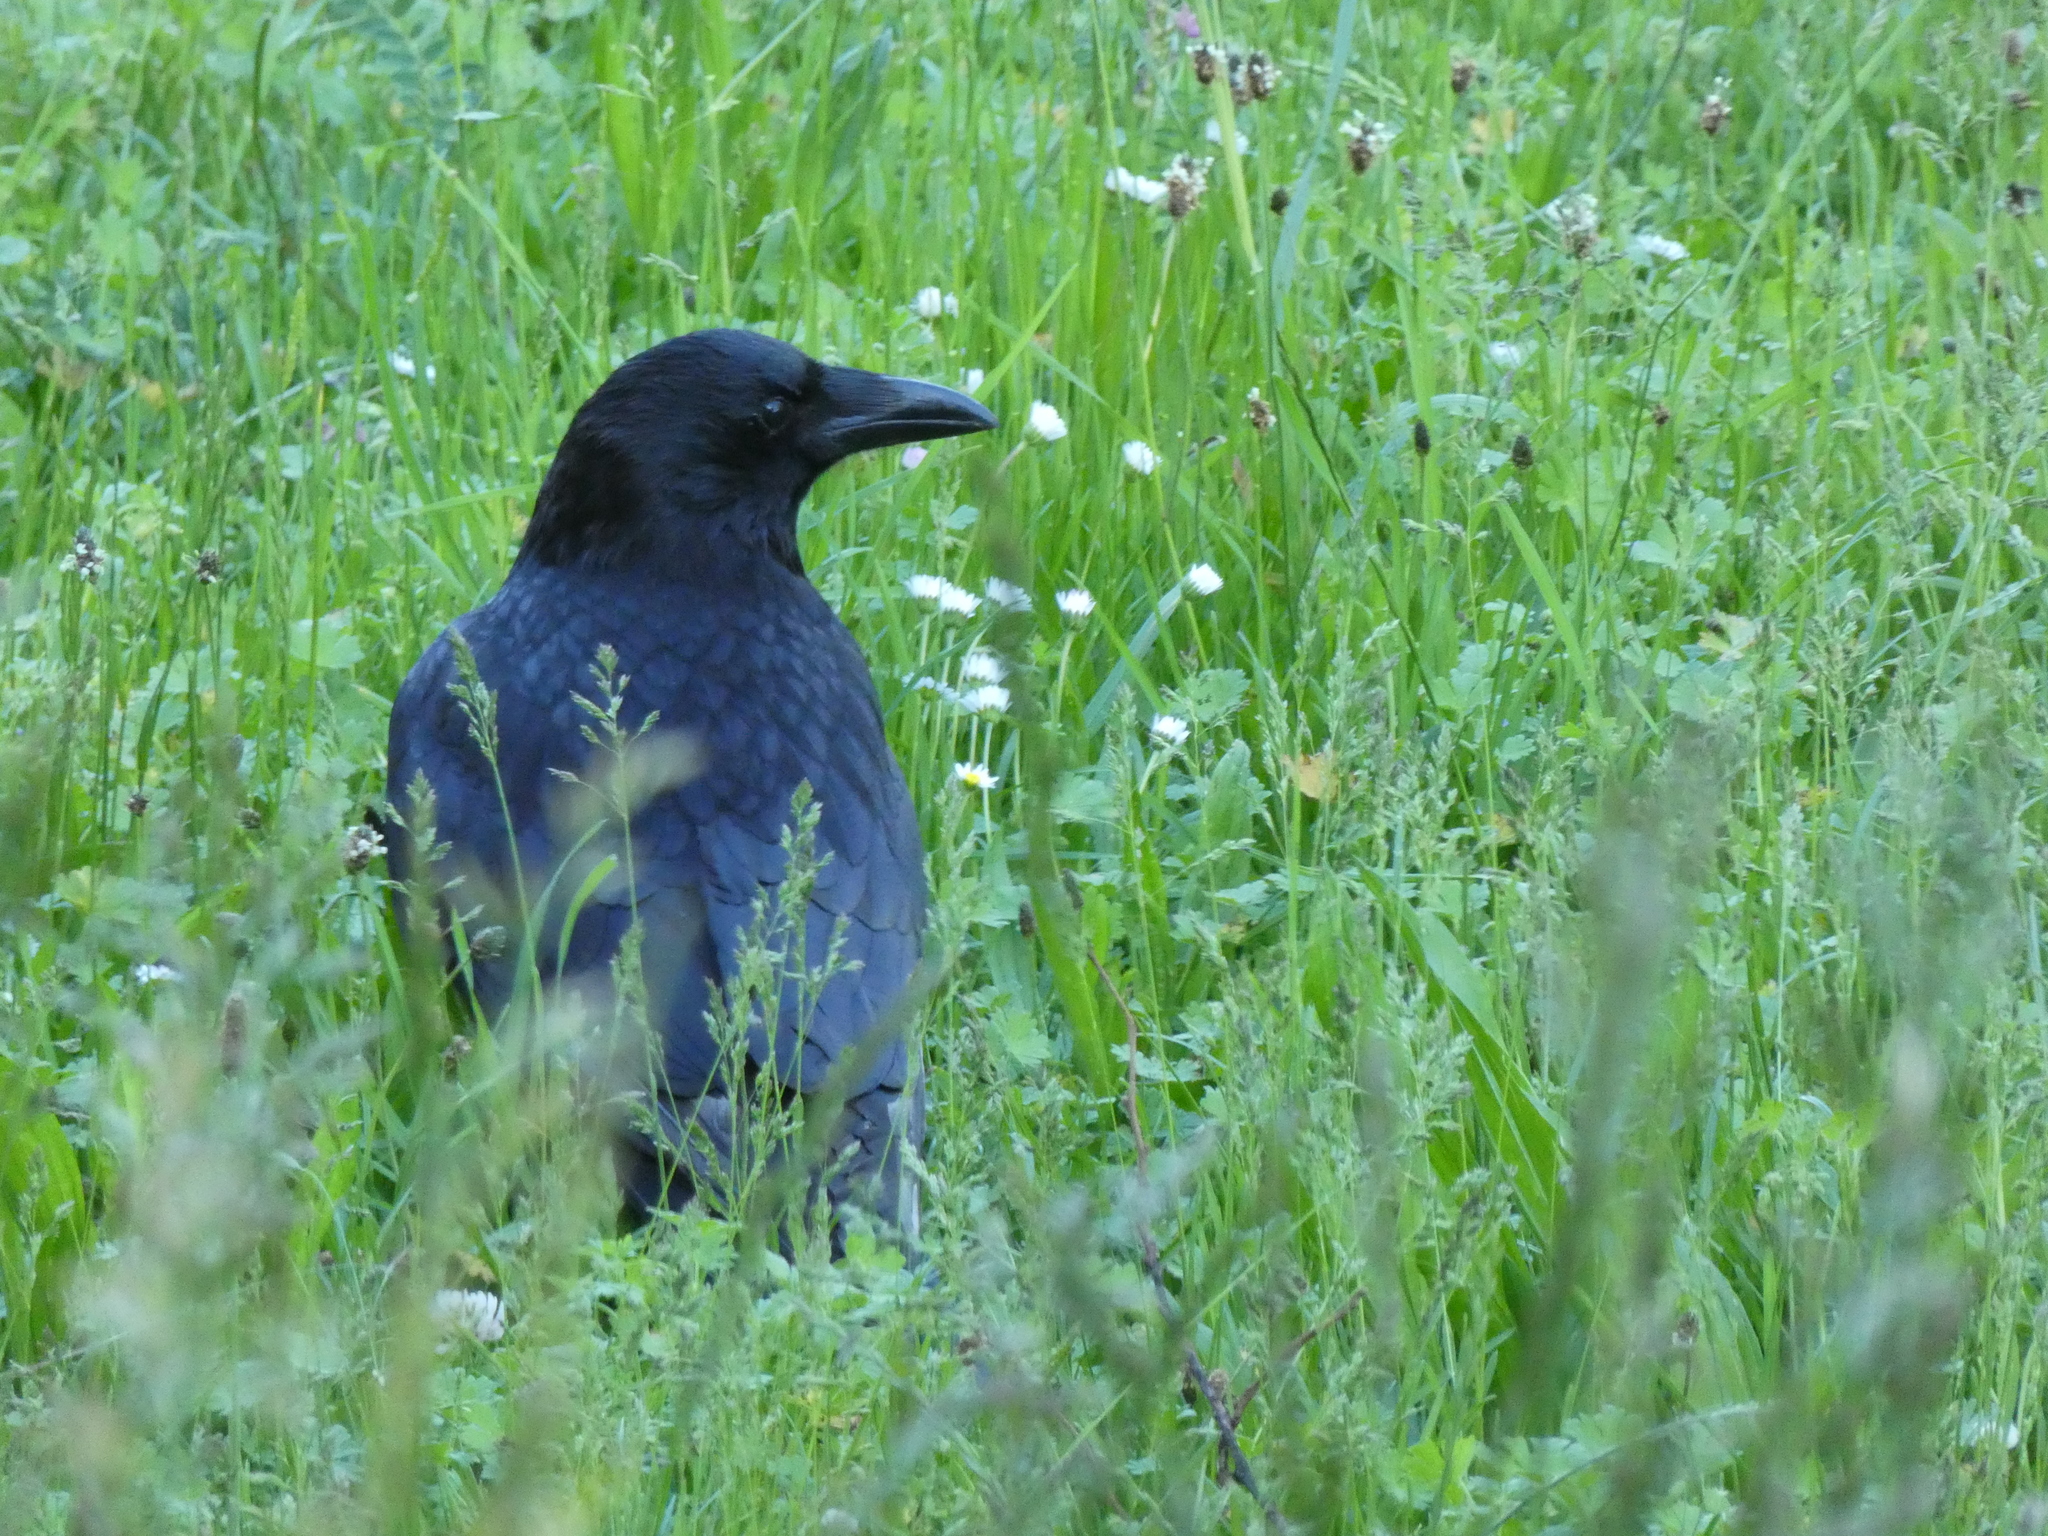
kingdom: Animalia
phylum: Chordata
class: Aves
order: Passeriformes
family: Corvidae
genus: Corvus
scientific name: Corvus corone
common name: Carrion crow
